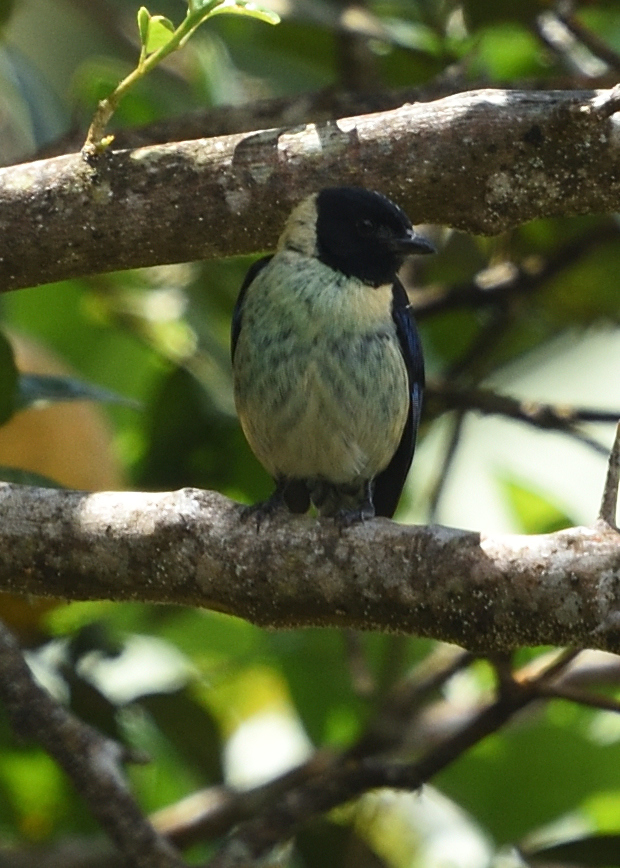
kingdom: Animalia
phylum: Chordata
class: Aves
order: Passeriformes
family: Thraupidae
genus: Stilpnia
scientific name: Stilpnia cyanoptera
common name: Black-headed tanager
